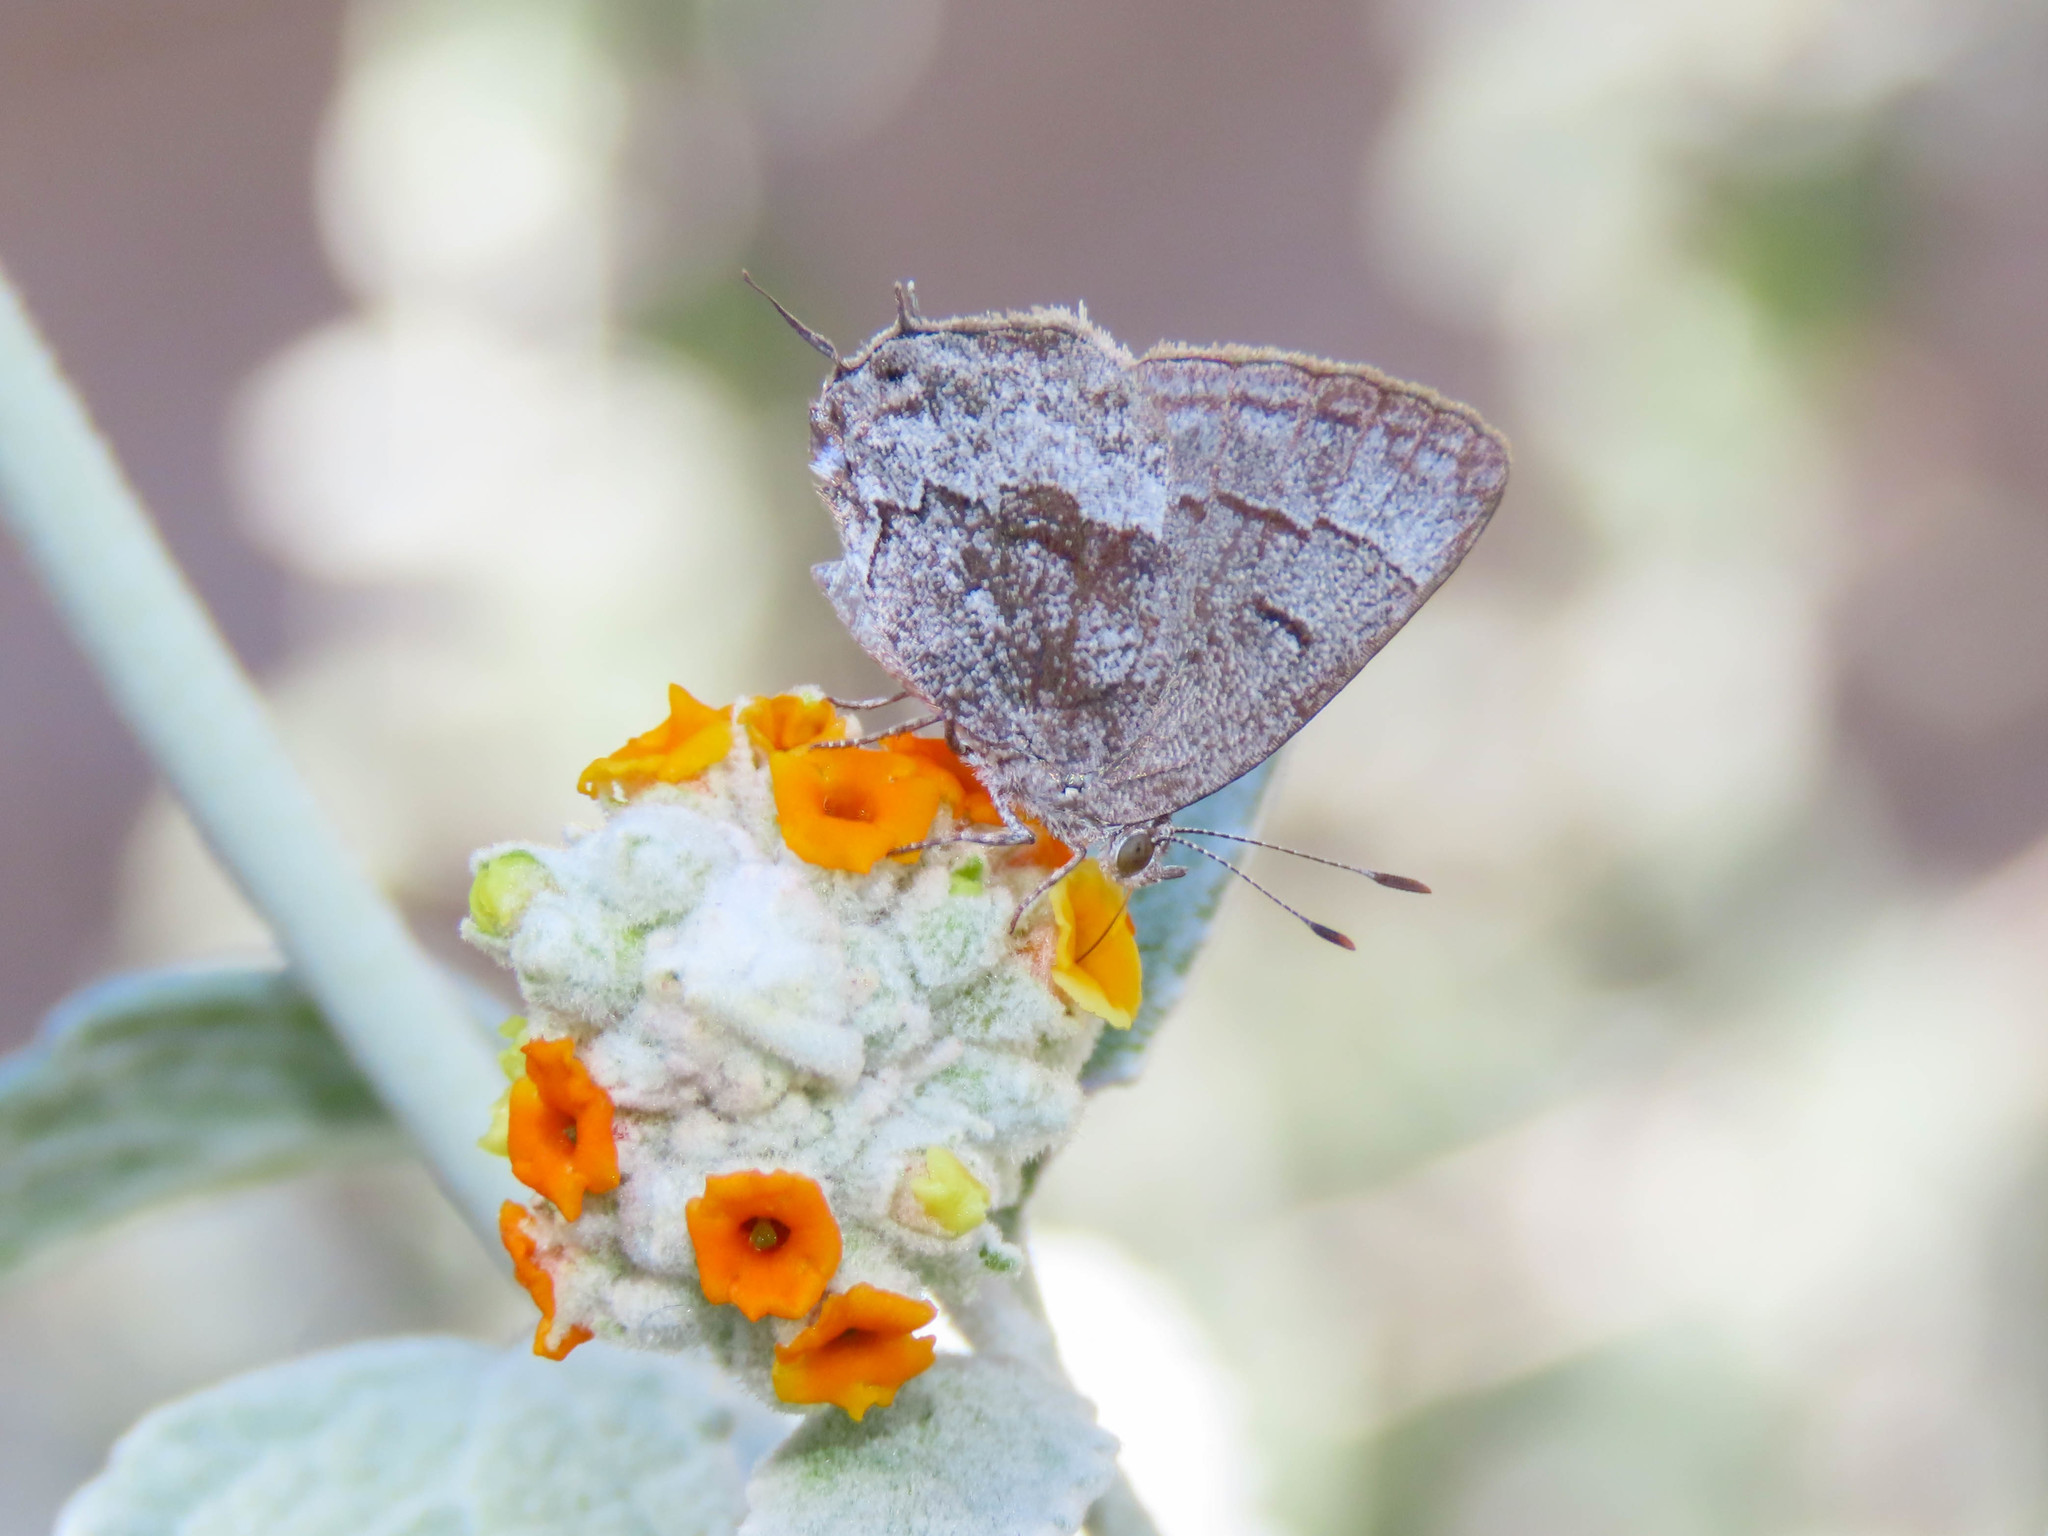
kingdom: Animalia
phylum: Arthropoda
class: Insecta
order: Lepidoptera
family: Lycaenidae
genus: Ministrymon
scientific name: Ministrymon leda
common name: Leda ministreak
